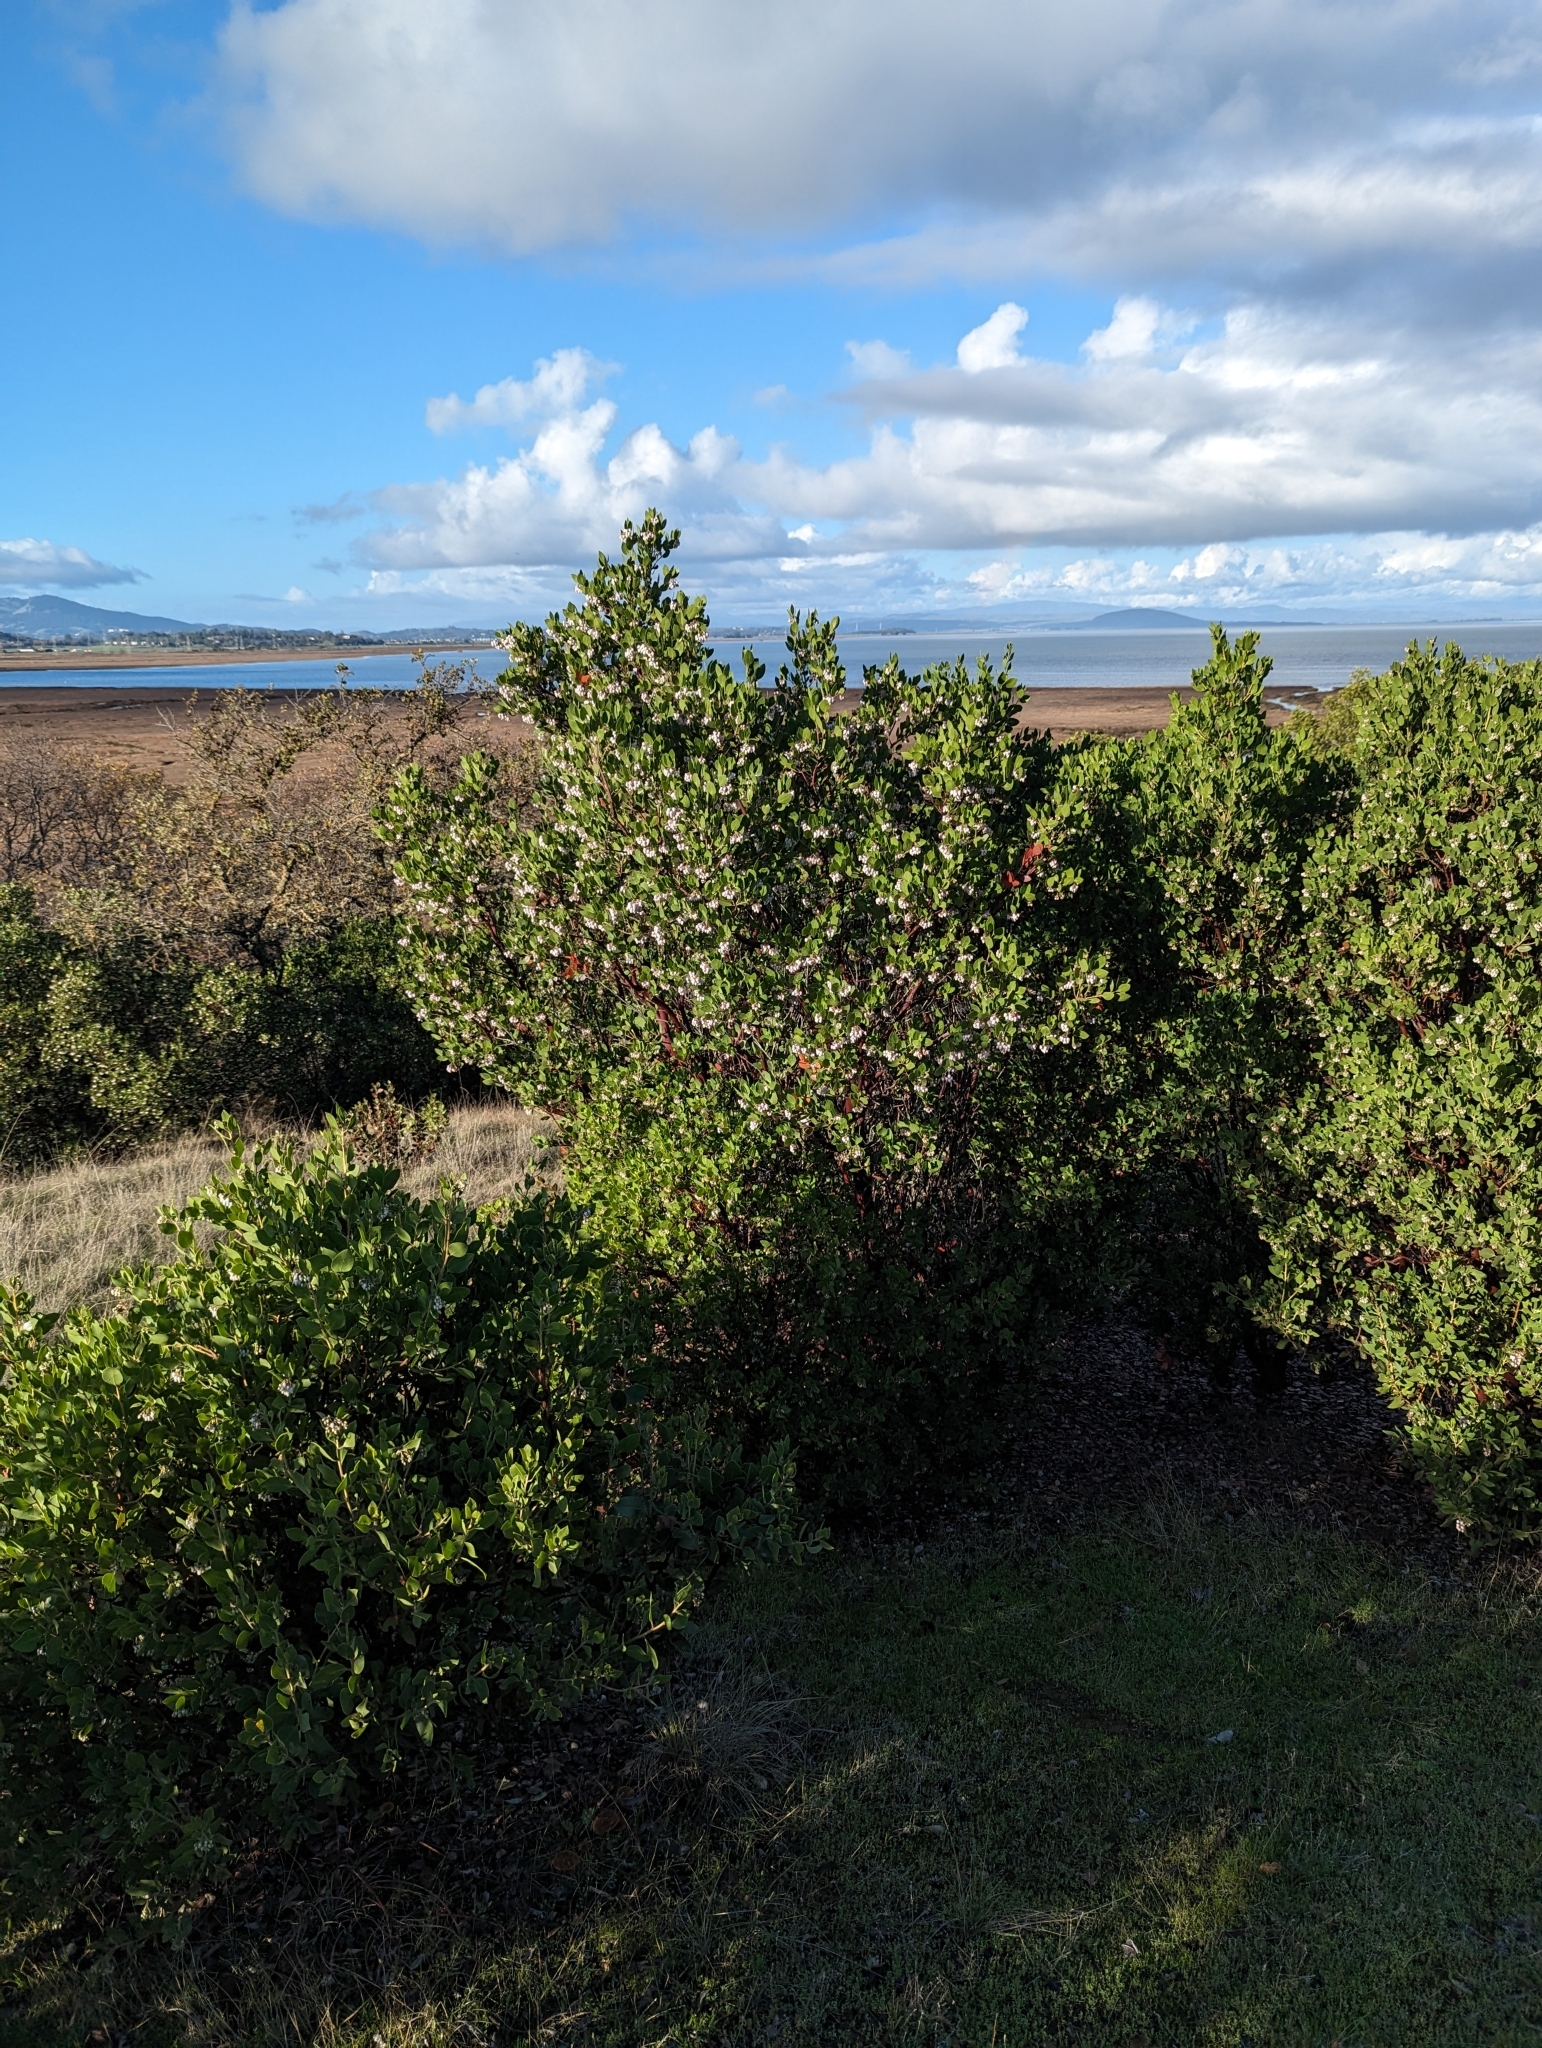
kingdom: Plantae
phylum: Tracheophyta
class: Magnoliopsida
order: Ericales
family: Ericaceae
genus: Arctostaphylos
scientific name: Arctostaphylos manzanita
